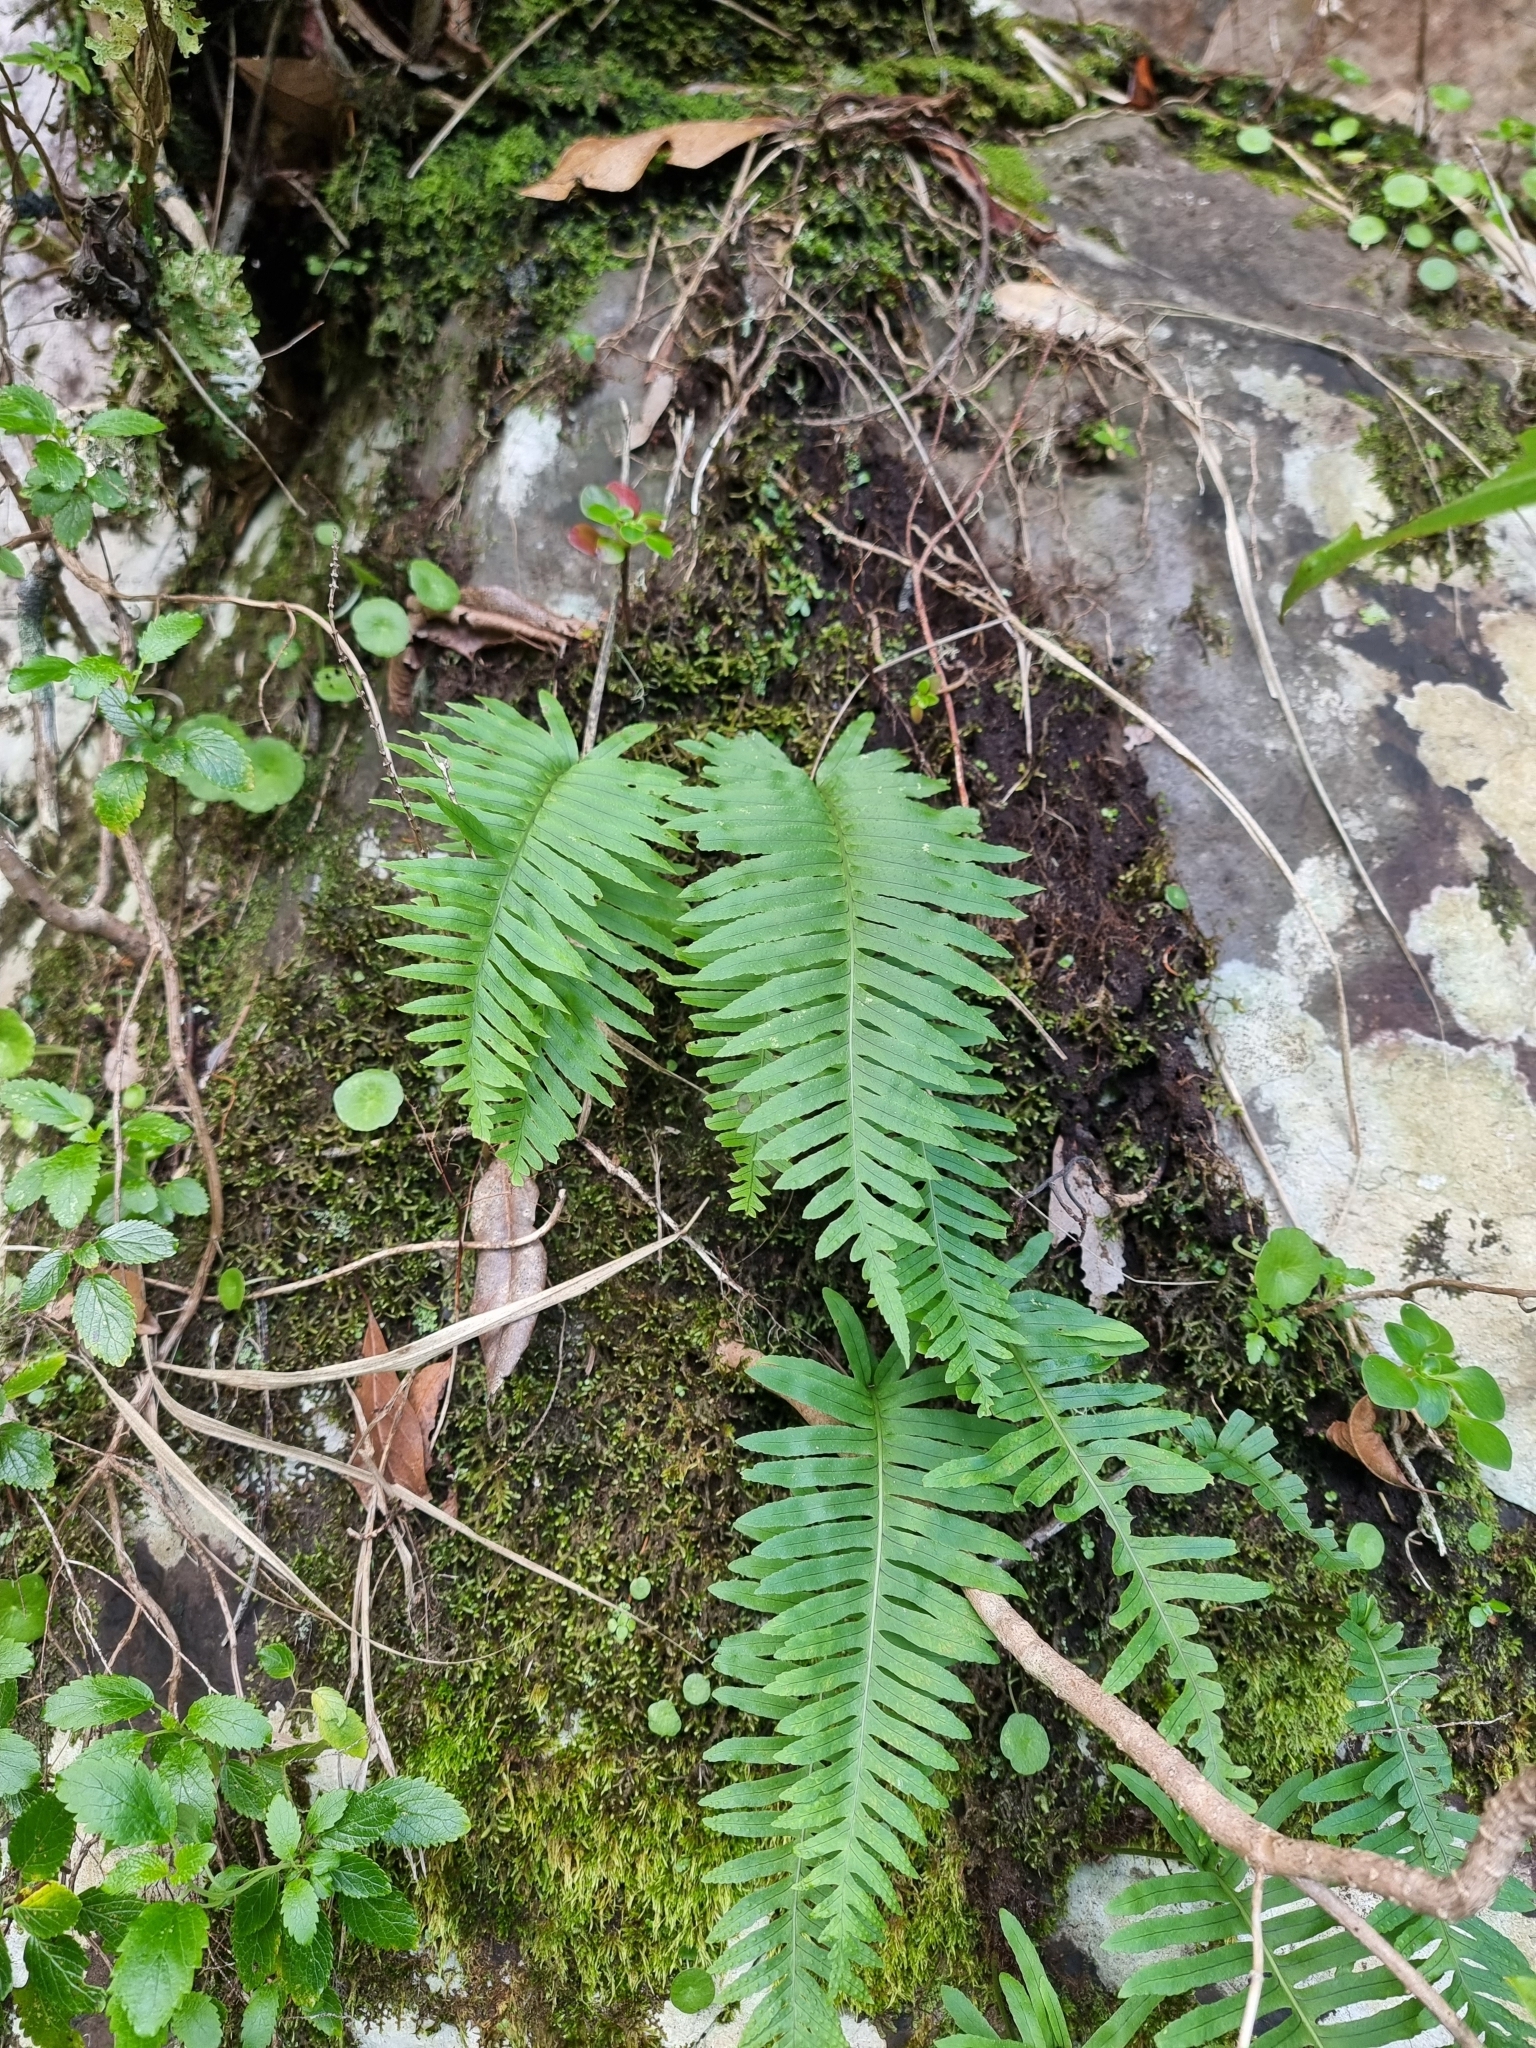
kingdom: Plantae
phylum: Tracheophyta
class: Polypodiopsida
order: Polypodiales
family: Polypodiaceae
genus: Polypodium
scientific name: Polypodium macaronesicum
